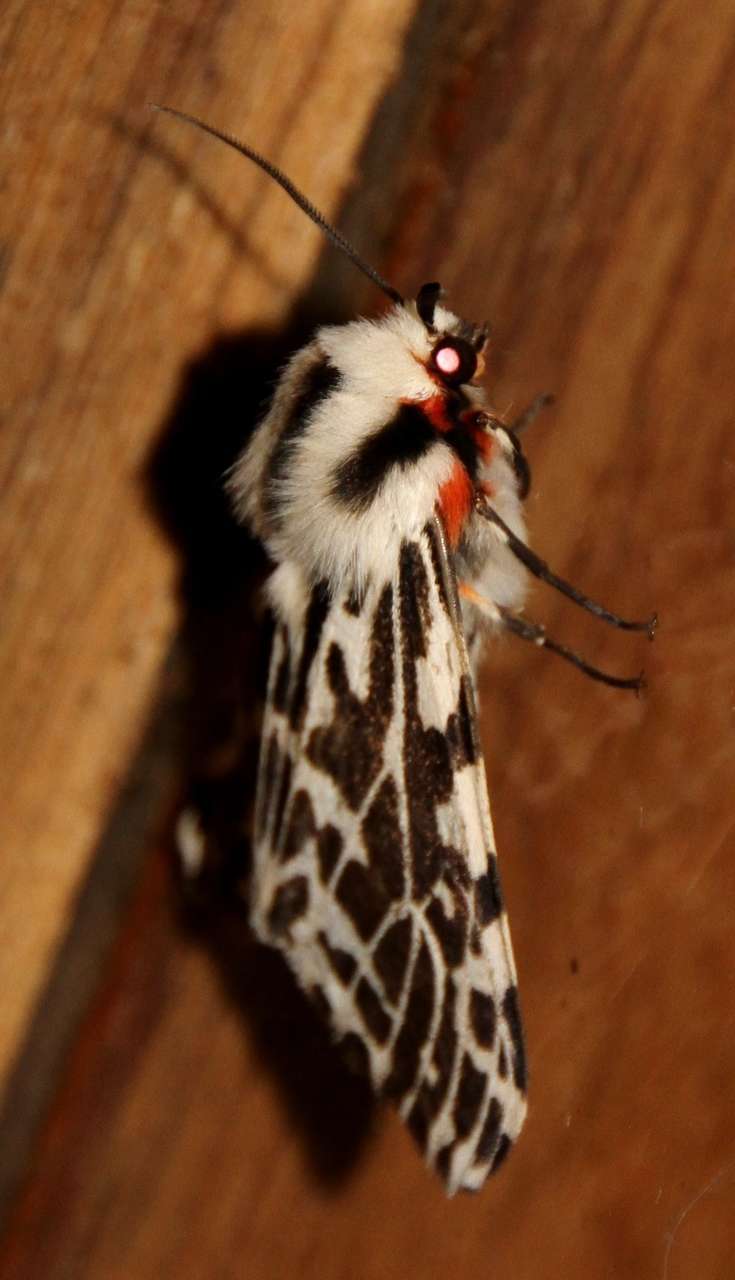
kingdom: Animalia
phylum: Arthropoda
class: Insecta
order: Lepidoptera
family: Erebidae
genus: Ardices
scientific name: Ardices glatignyi
